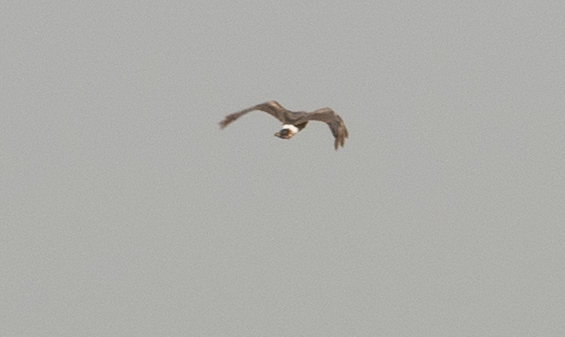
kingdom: Animalia
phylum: Chordata
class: Aves
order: Accipitriformes
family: Accipitridae
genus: Circus
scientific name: Circus cyaneus
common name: Hen harrier
